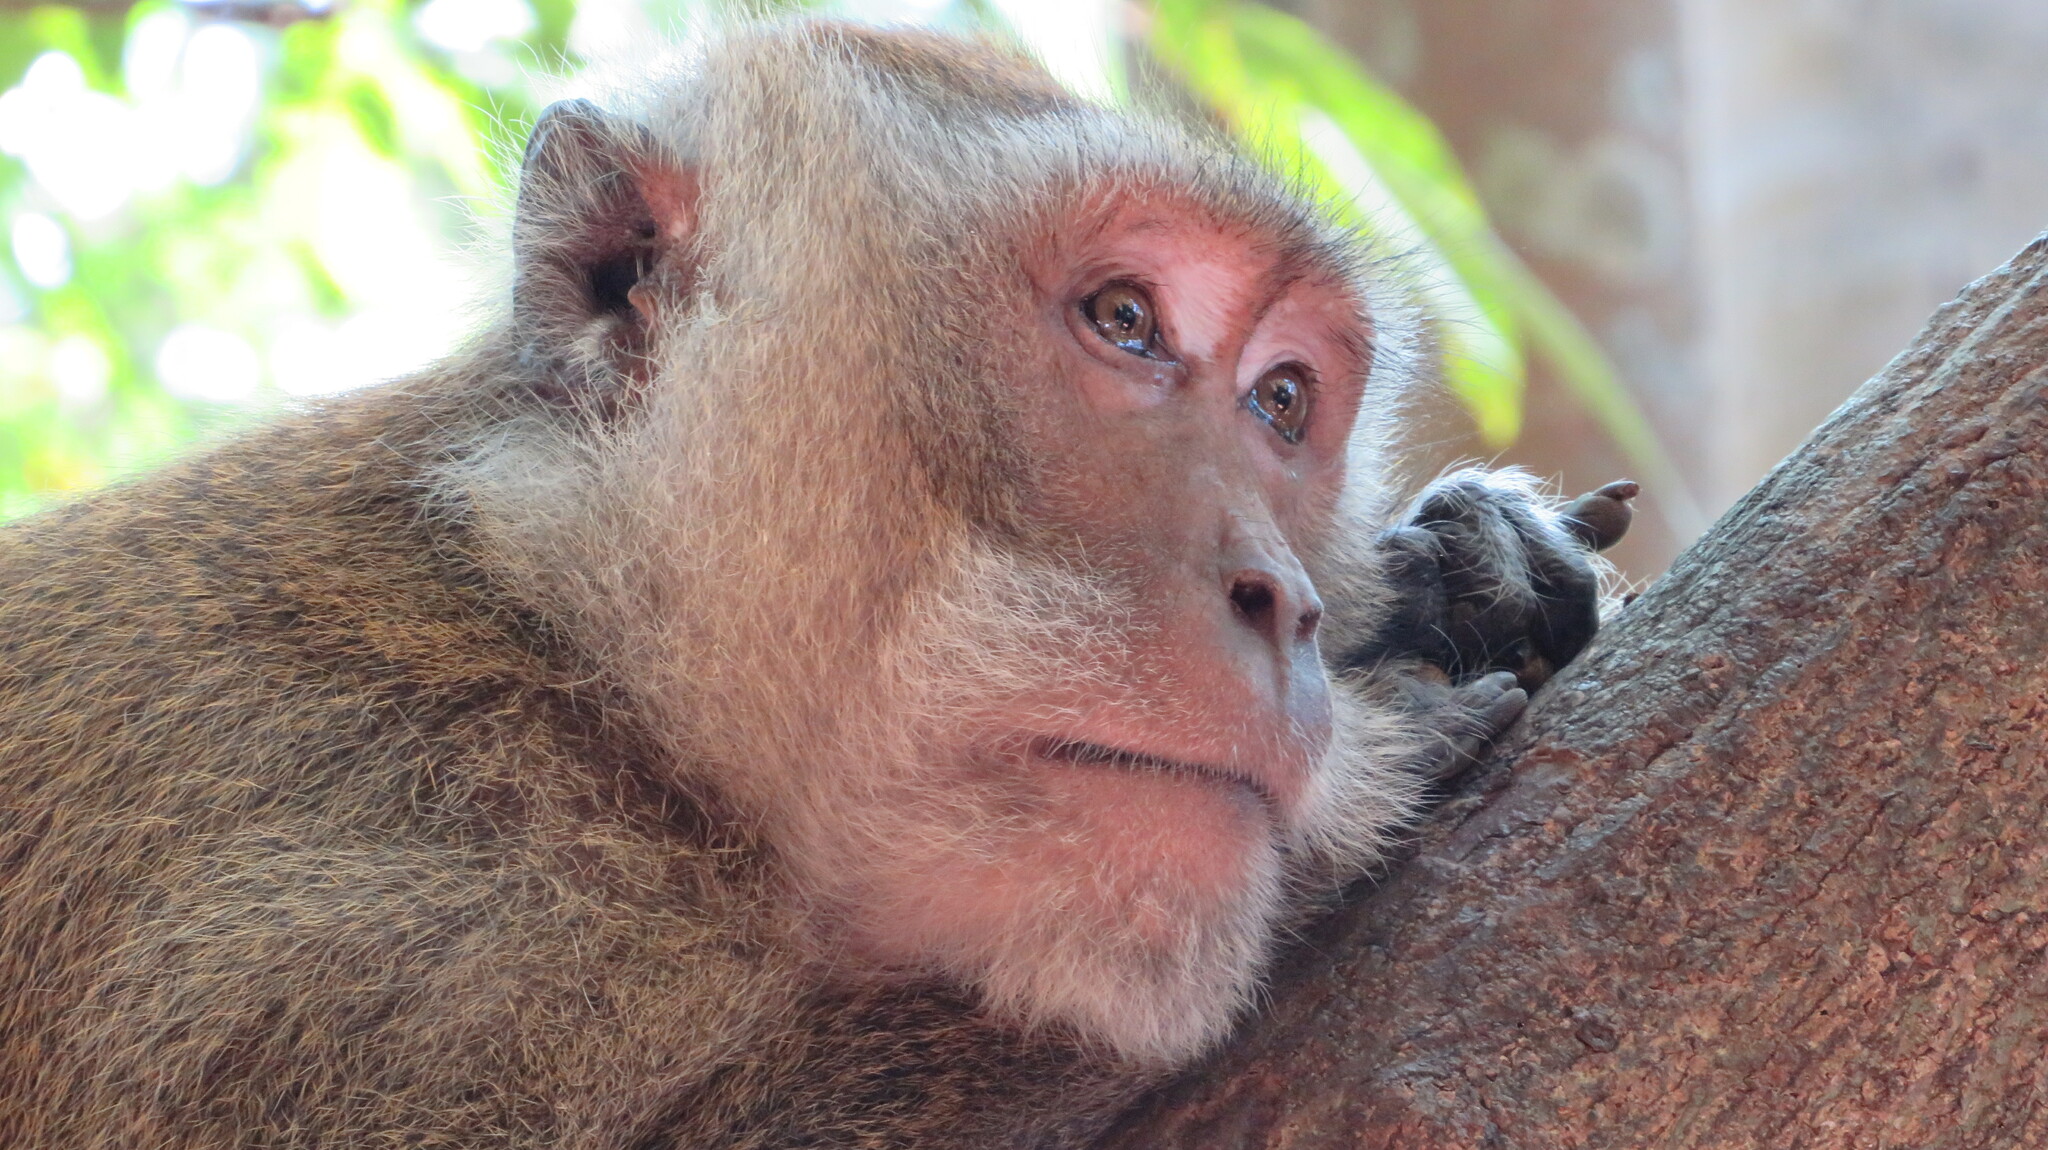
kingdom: Animalia
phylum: Chordata
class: Mammalia
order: Primates
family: Cercopithecidae
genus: Macaca
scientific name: Macaca fascicularis
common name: Crab-eating macaque
